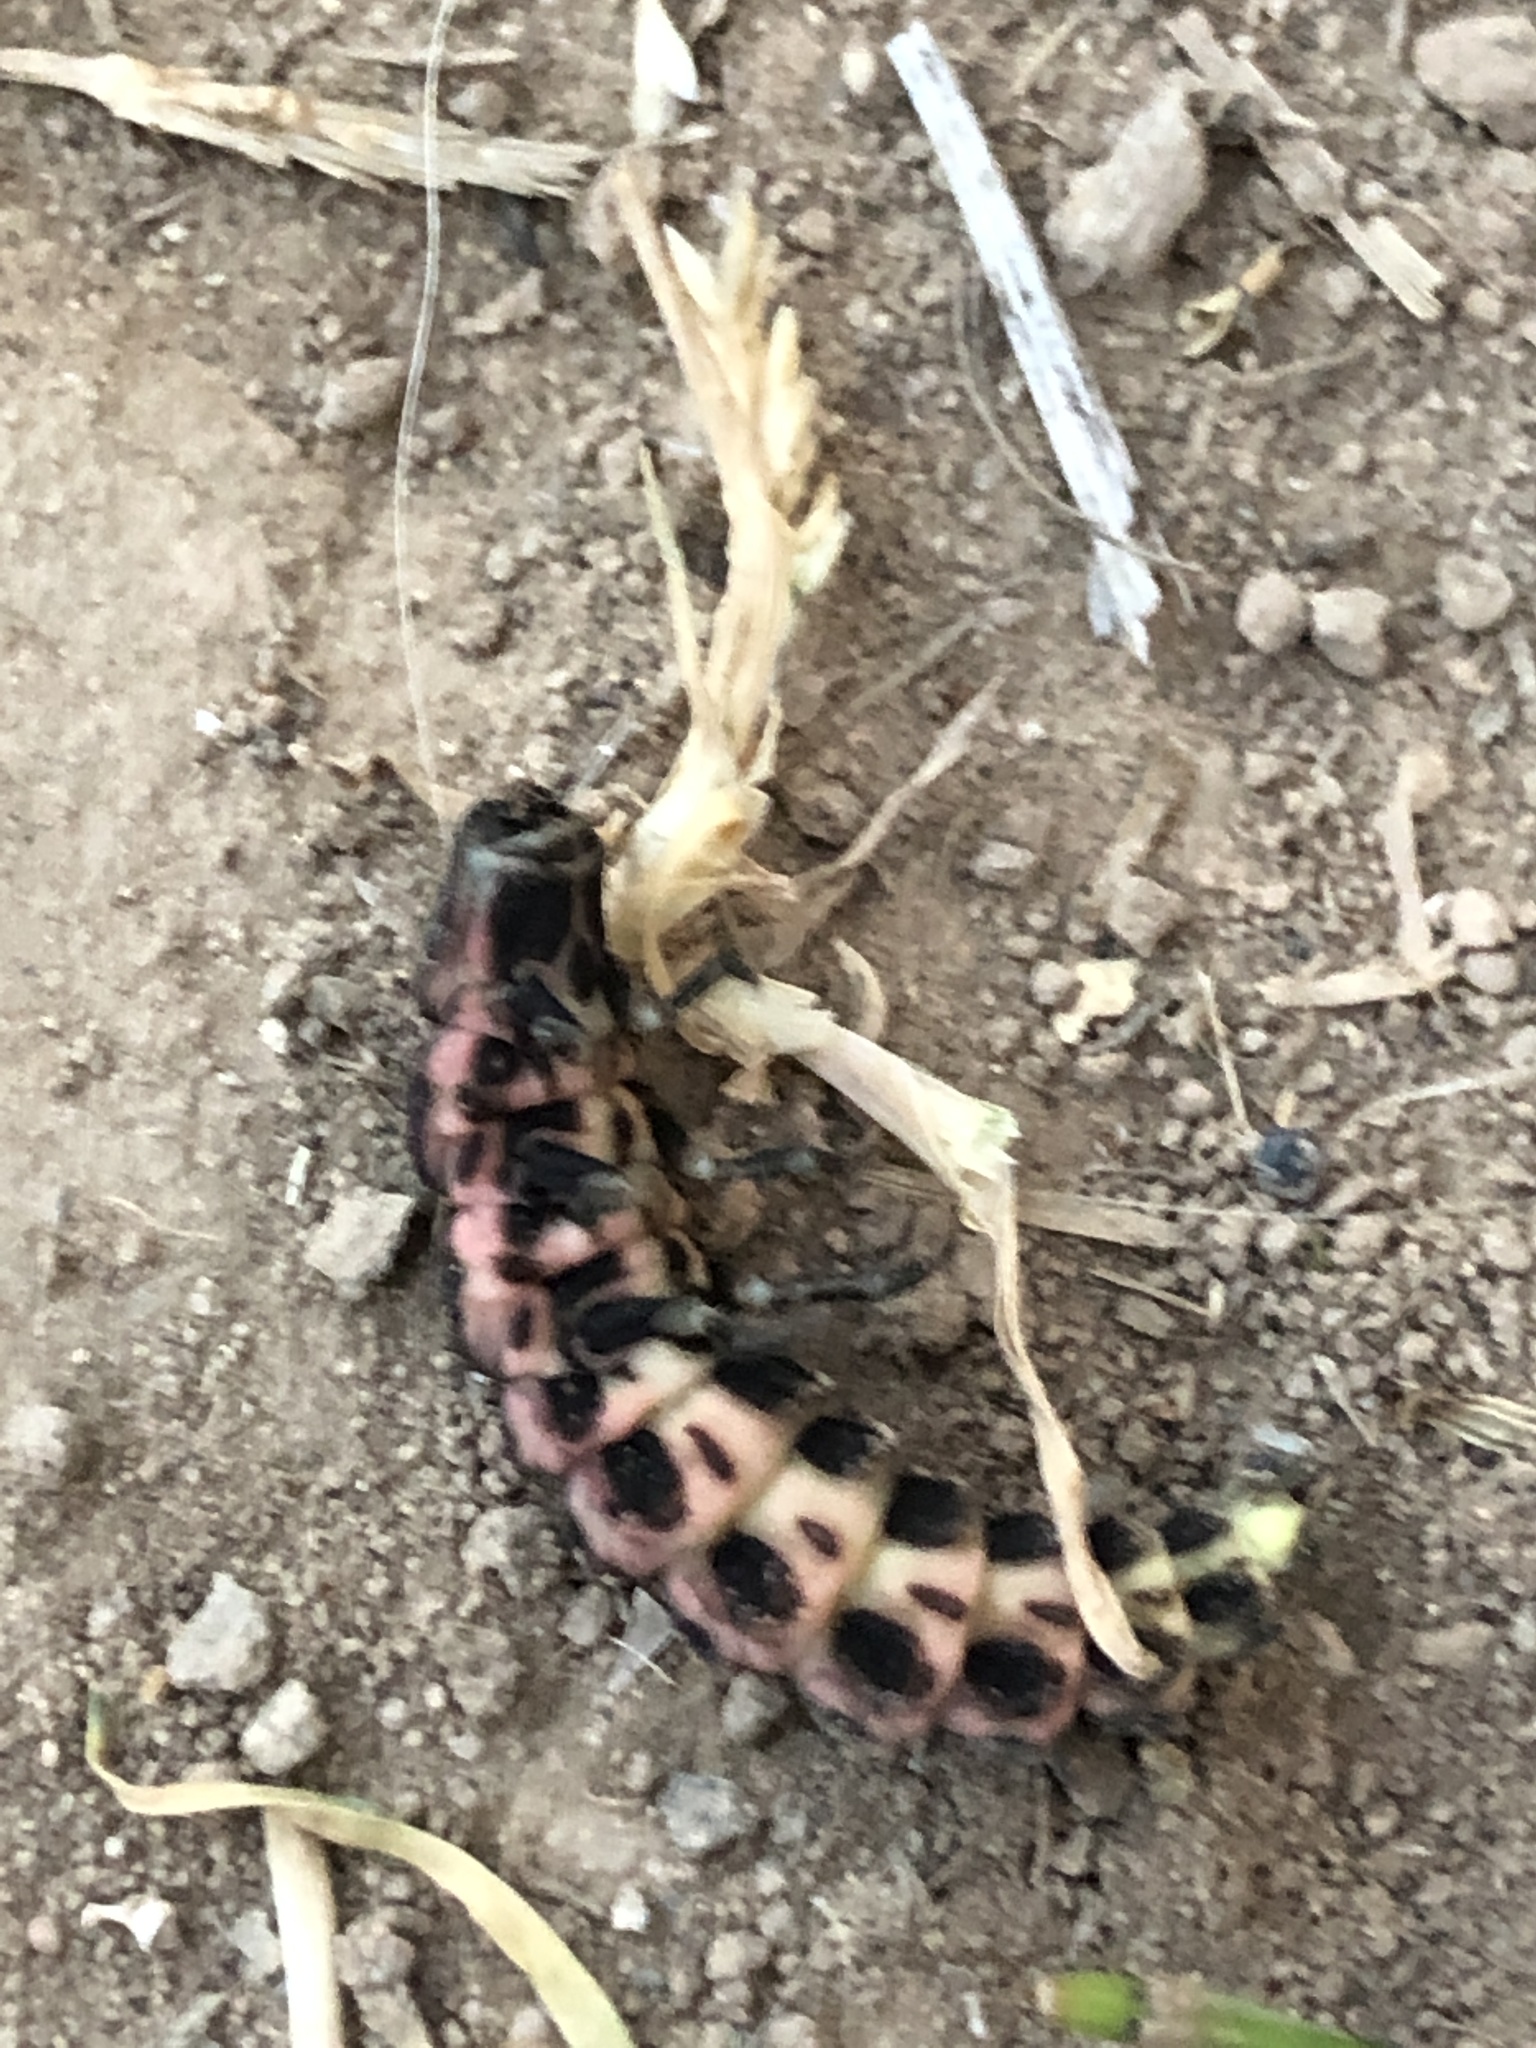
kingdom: Animalia
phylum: Arthropoda
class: Insecta
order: Coleoptera
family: Lampyridae
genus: Nyctophila
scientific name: Nyctophila reichii
